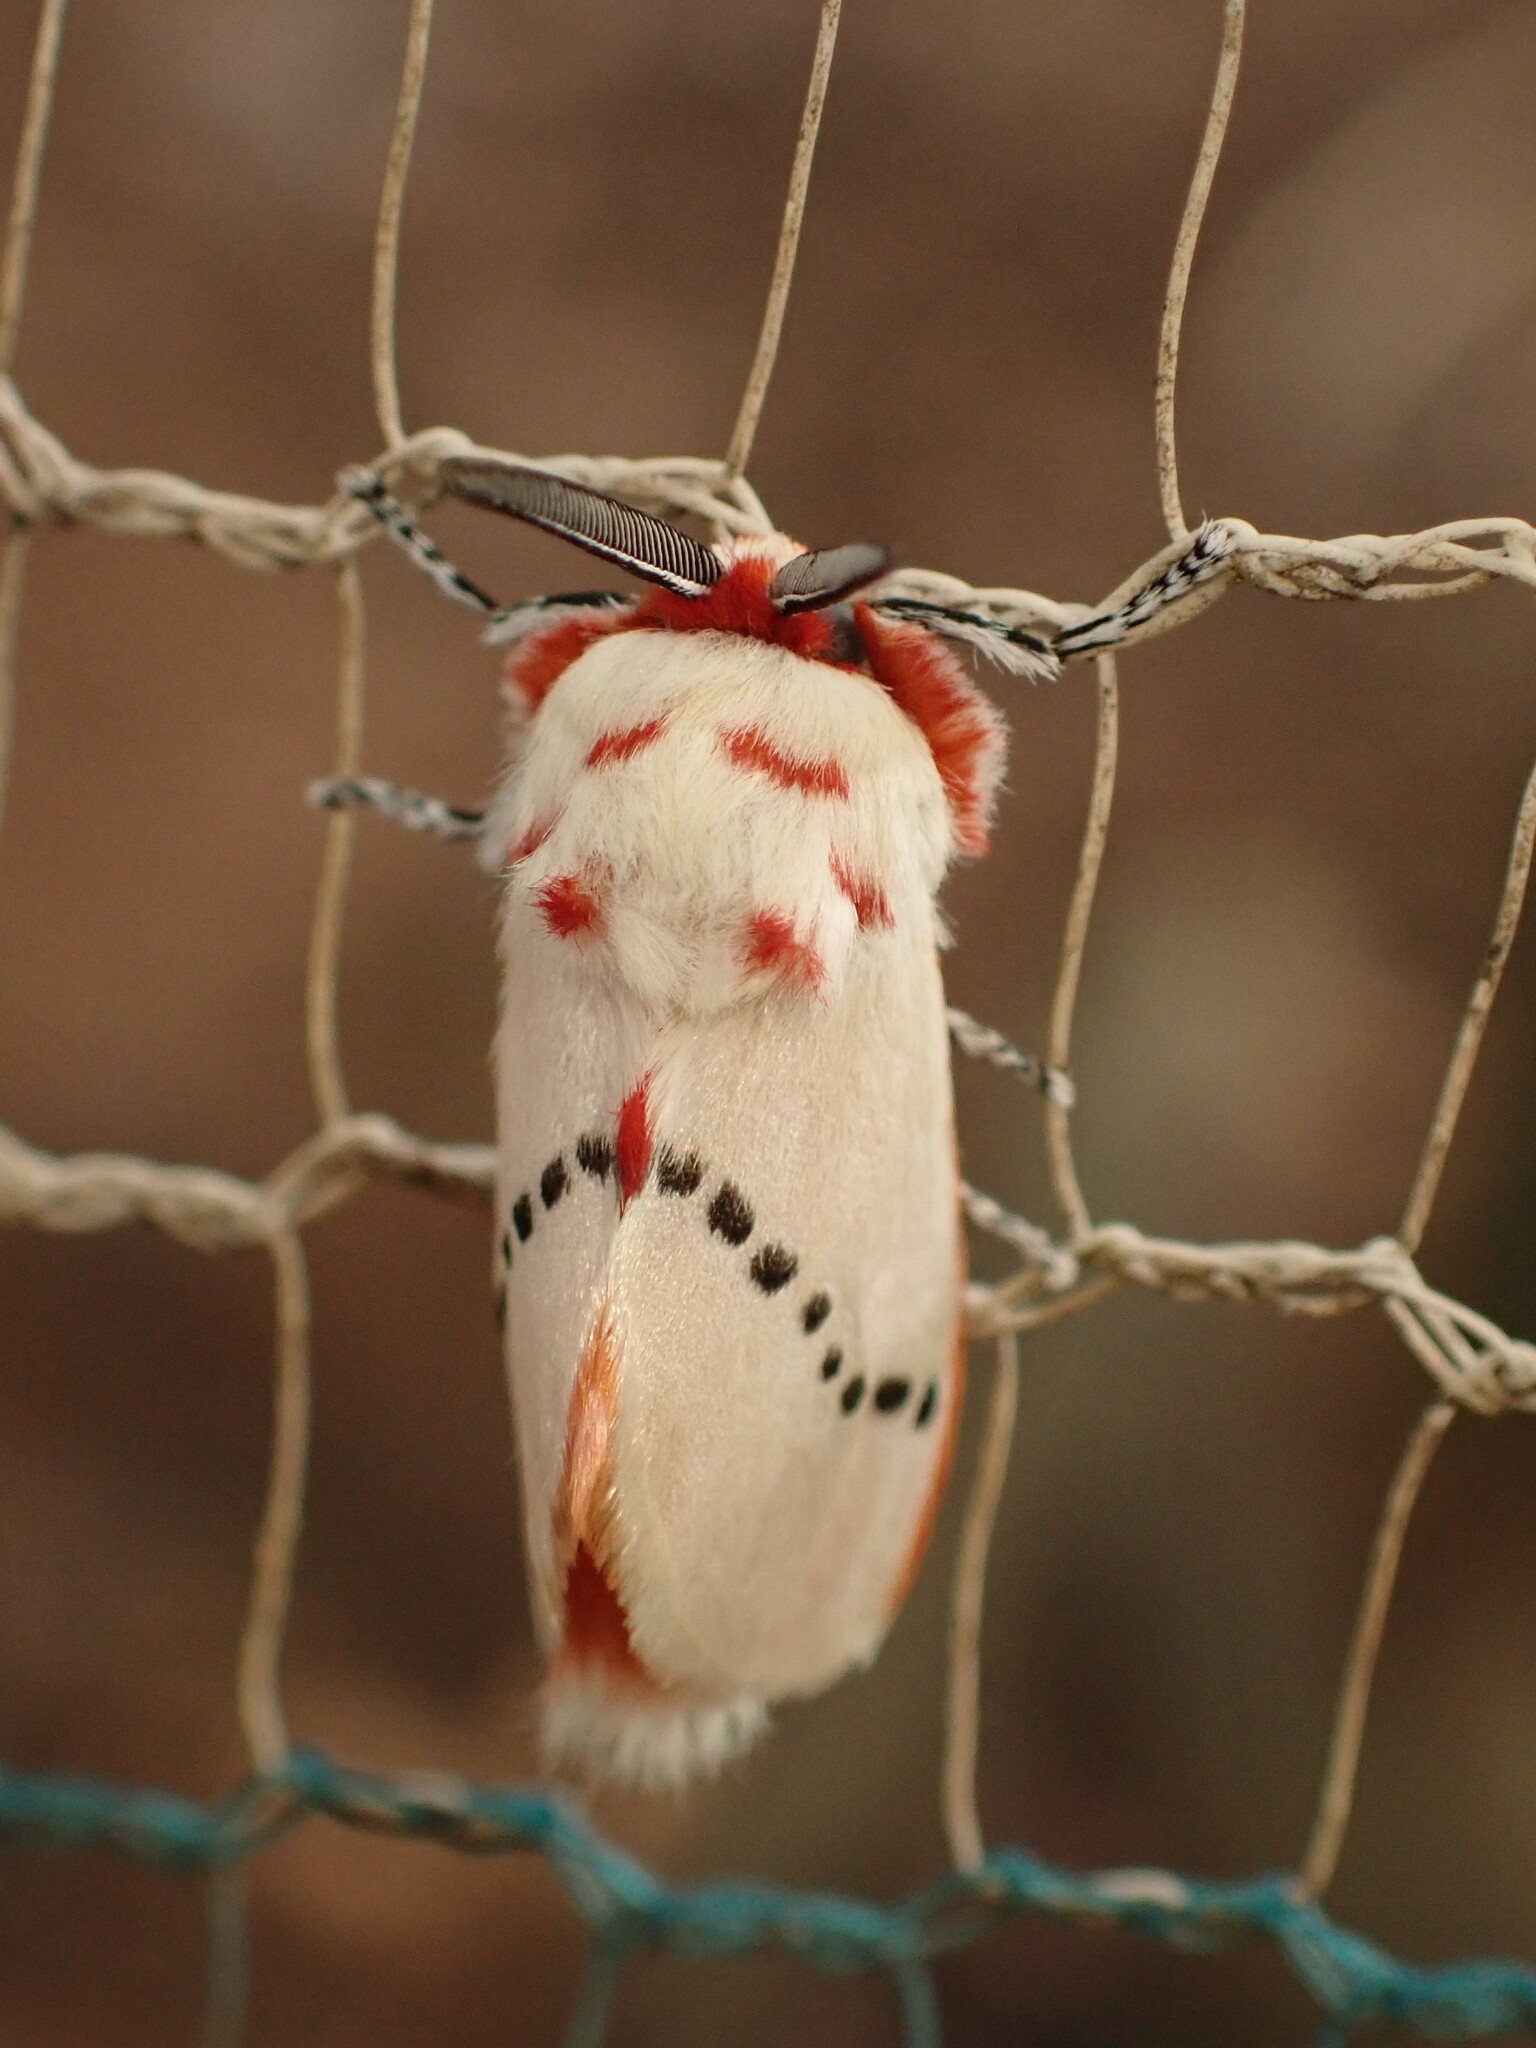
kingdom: Animalia
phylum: Arthropoda
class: Insecta
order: Lepidoptera
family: Megalopygidae
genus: Trosia
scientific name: Trosia misda
